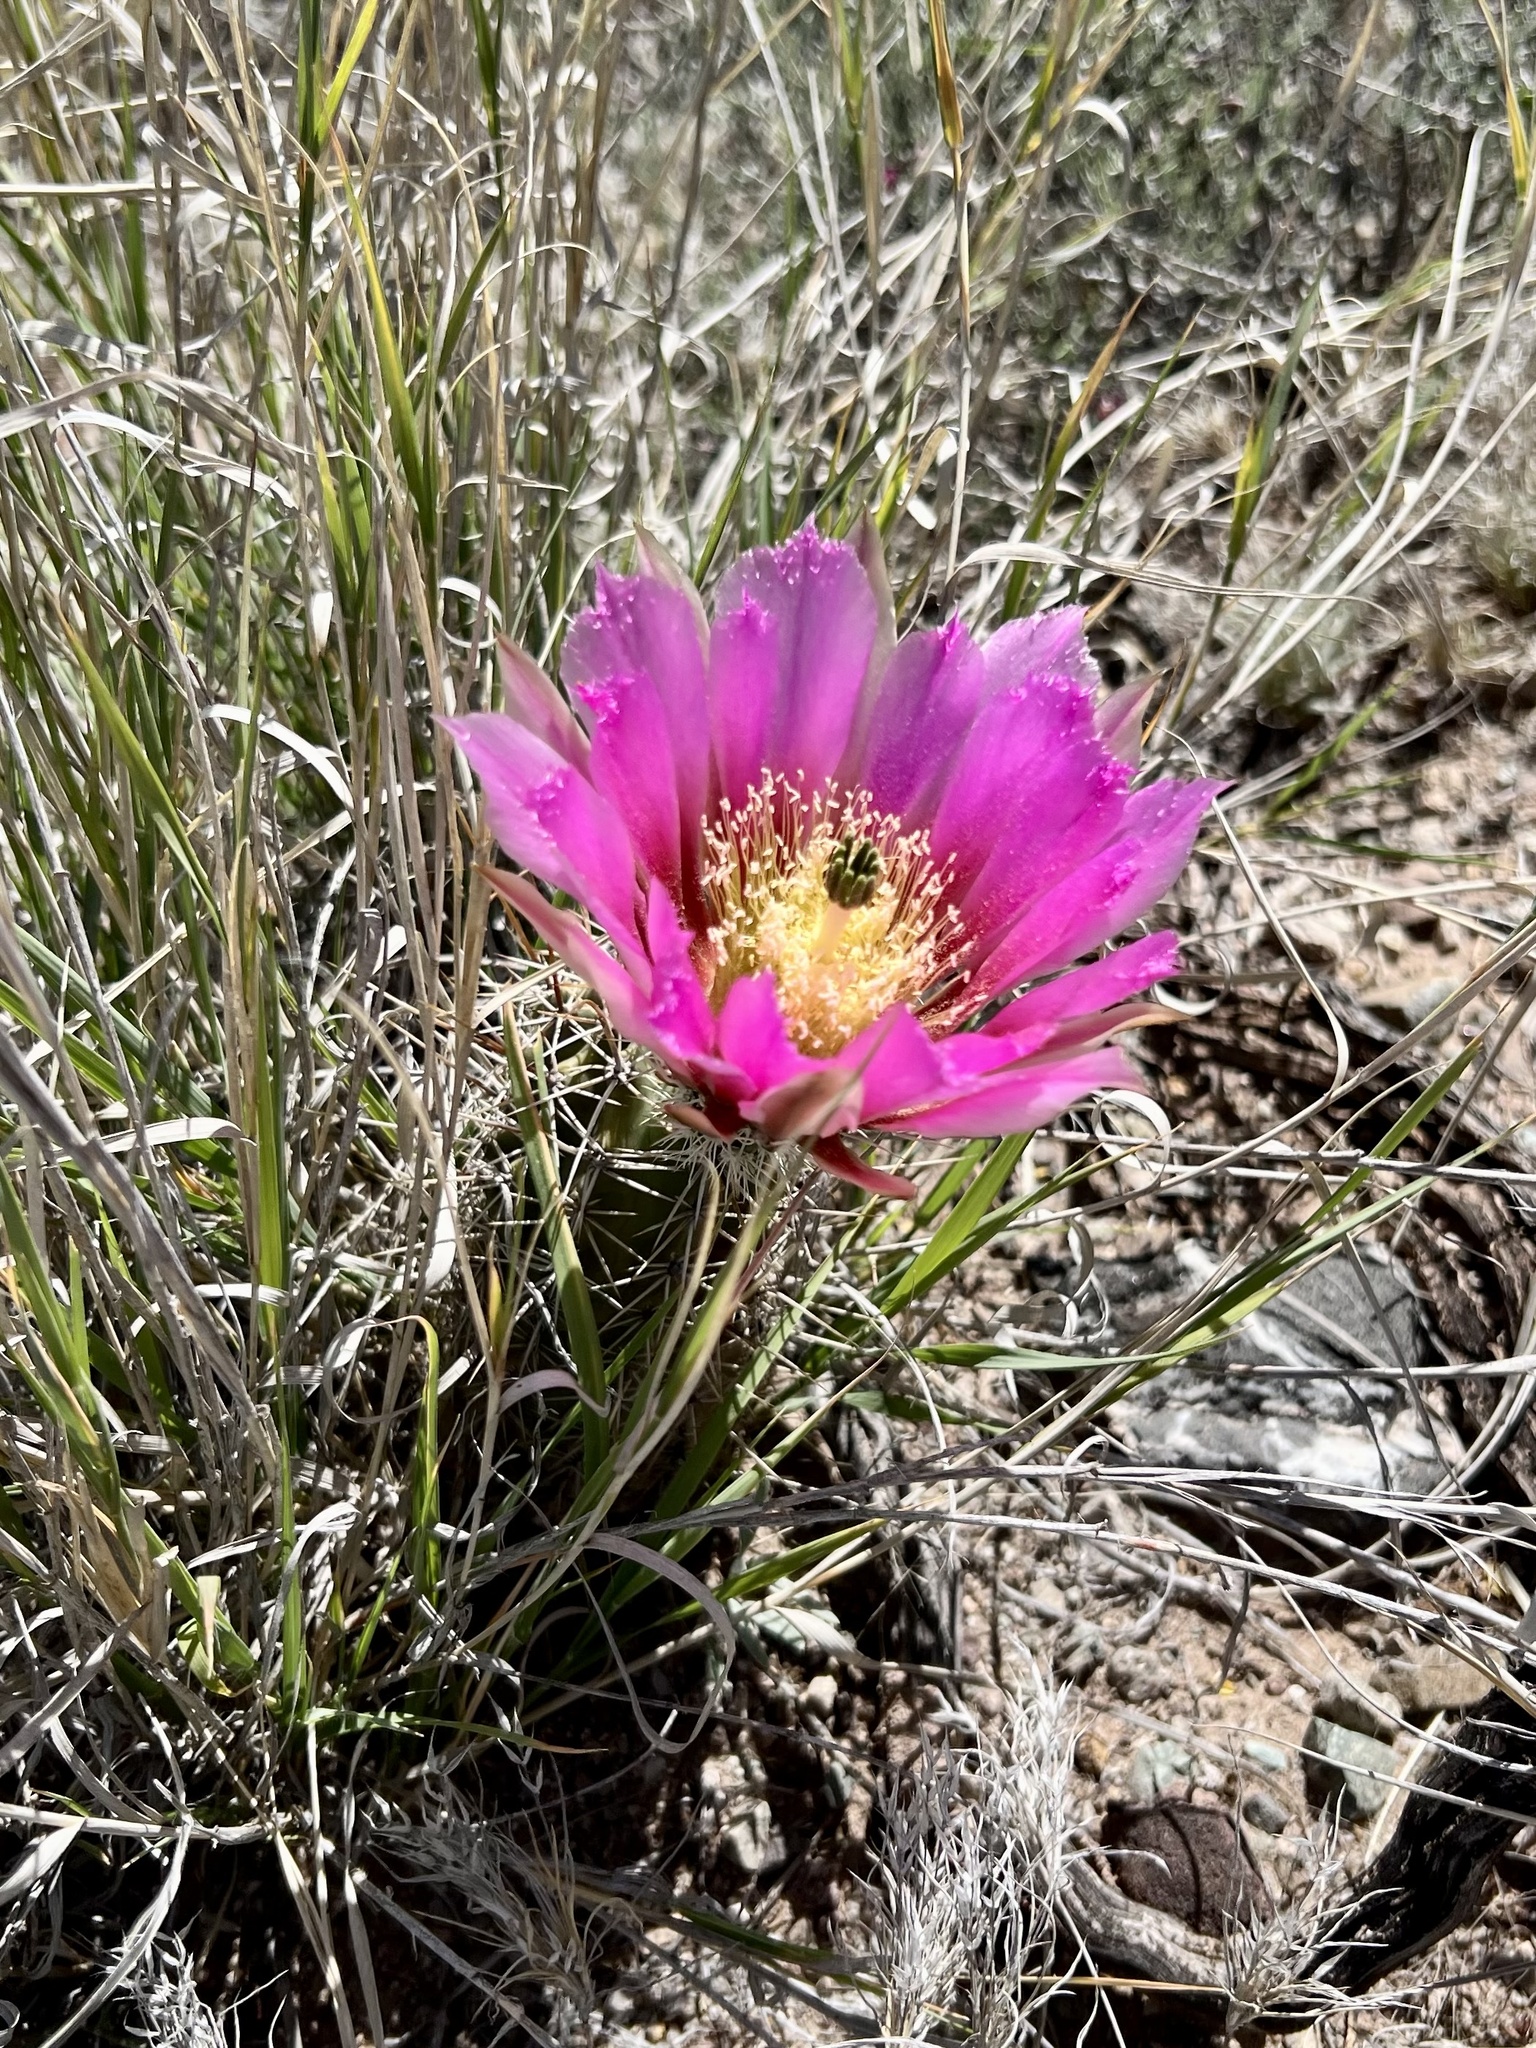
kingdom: Plantae
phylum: Tracheophyta
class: Magnoliopsida
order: Caryophyllales
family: Cactaceae
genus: Echinocereus
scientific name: Echinocereus fasciculatus
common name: Bundle hedgehog
